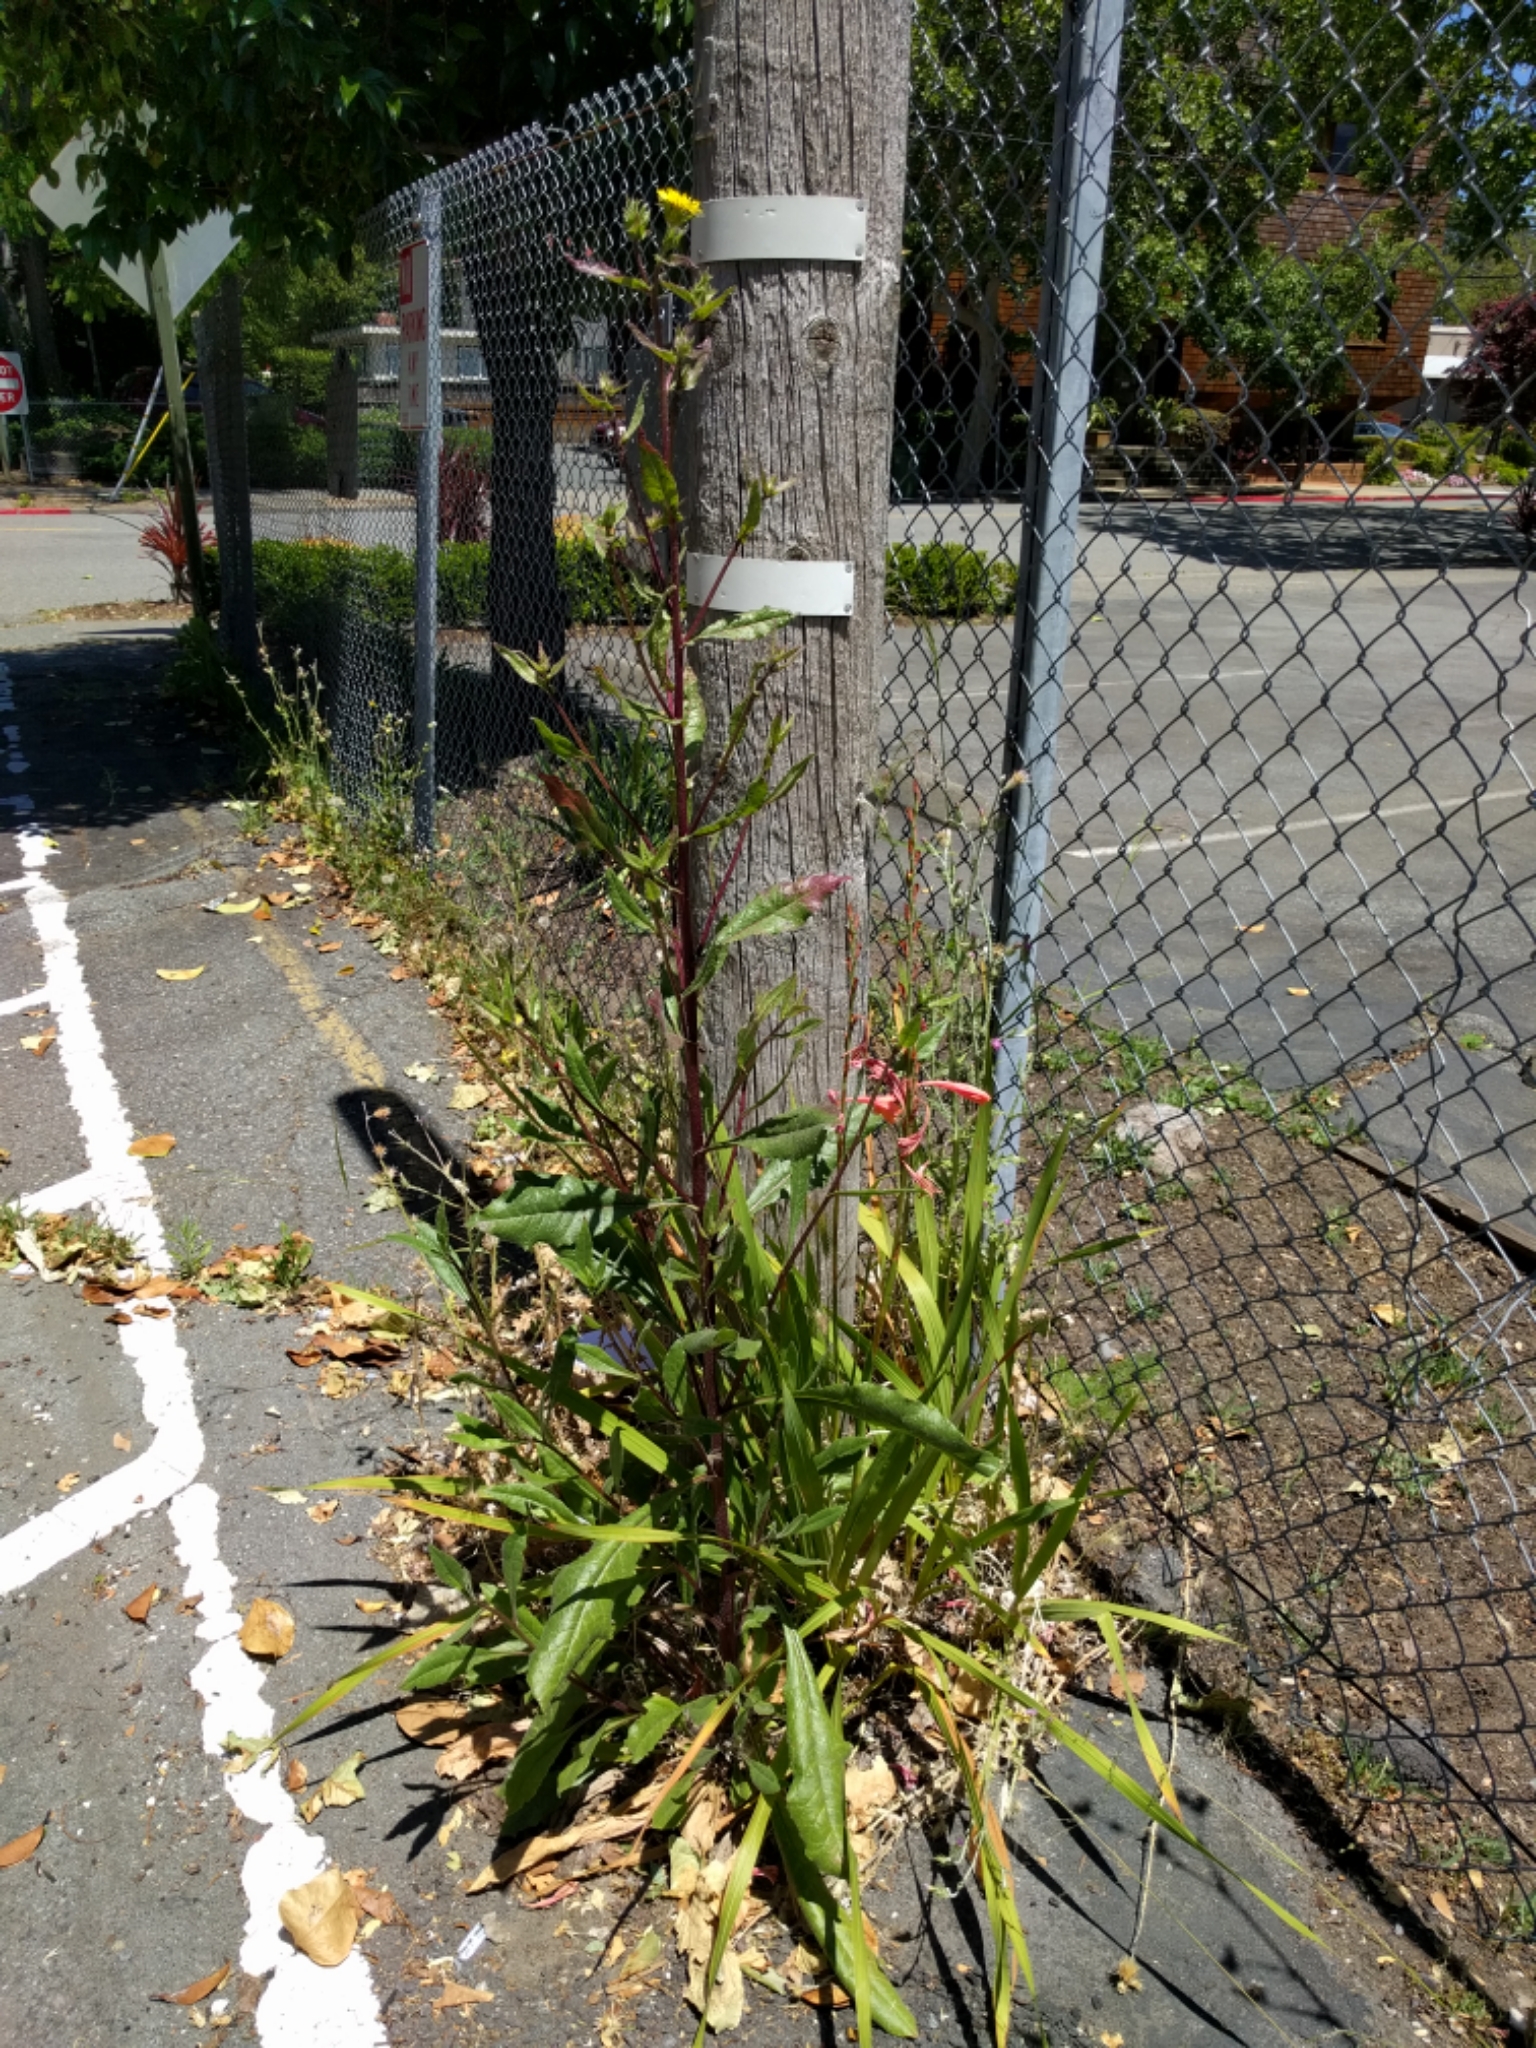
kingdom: Plantae
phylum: Tracheophyta
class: Magnoliopsida
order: Asterales
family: Asteraceae
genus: Helminthotheca
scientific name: Helminthotheca echioides
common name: Ox-tongue
